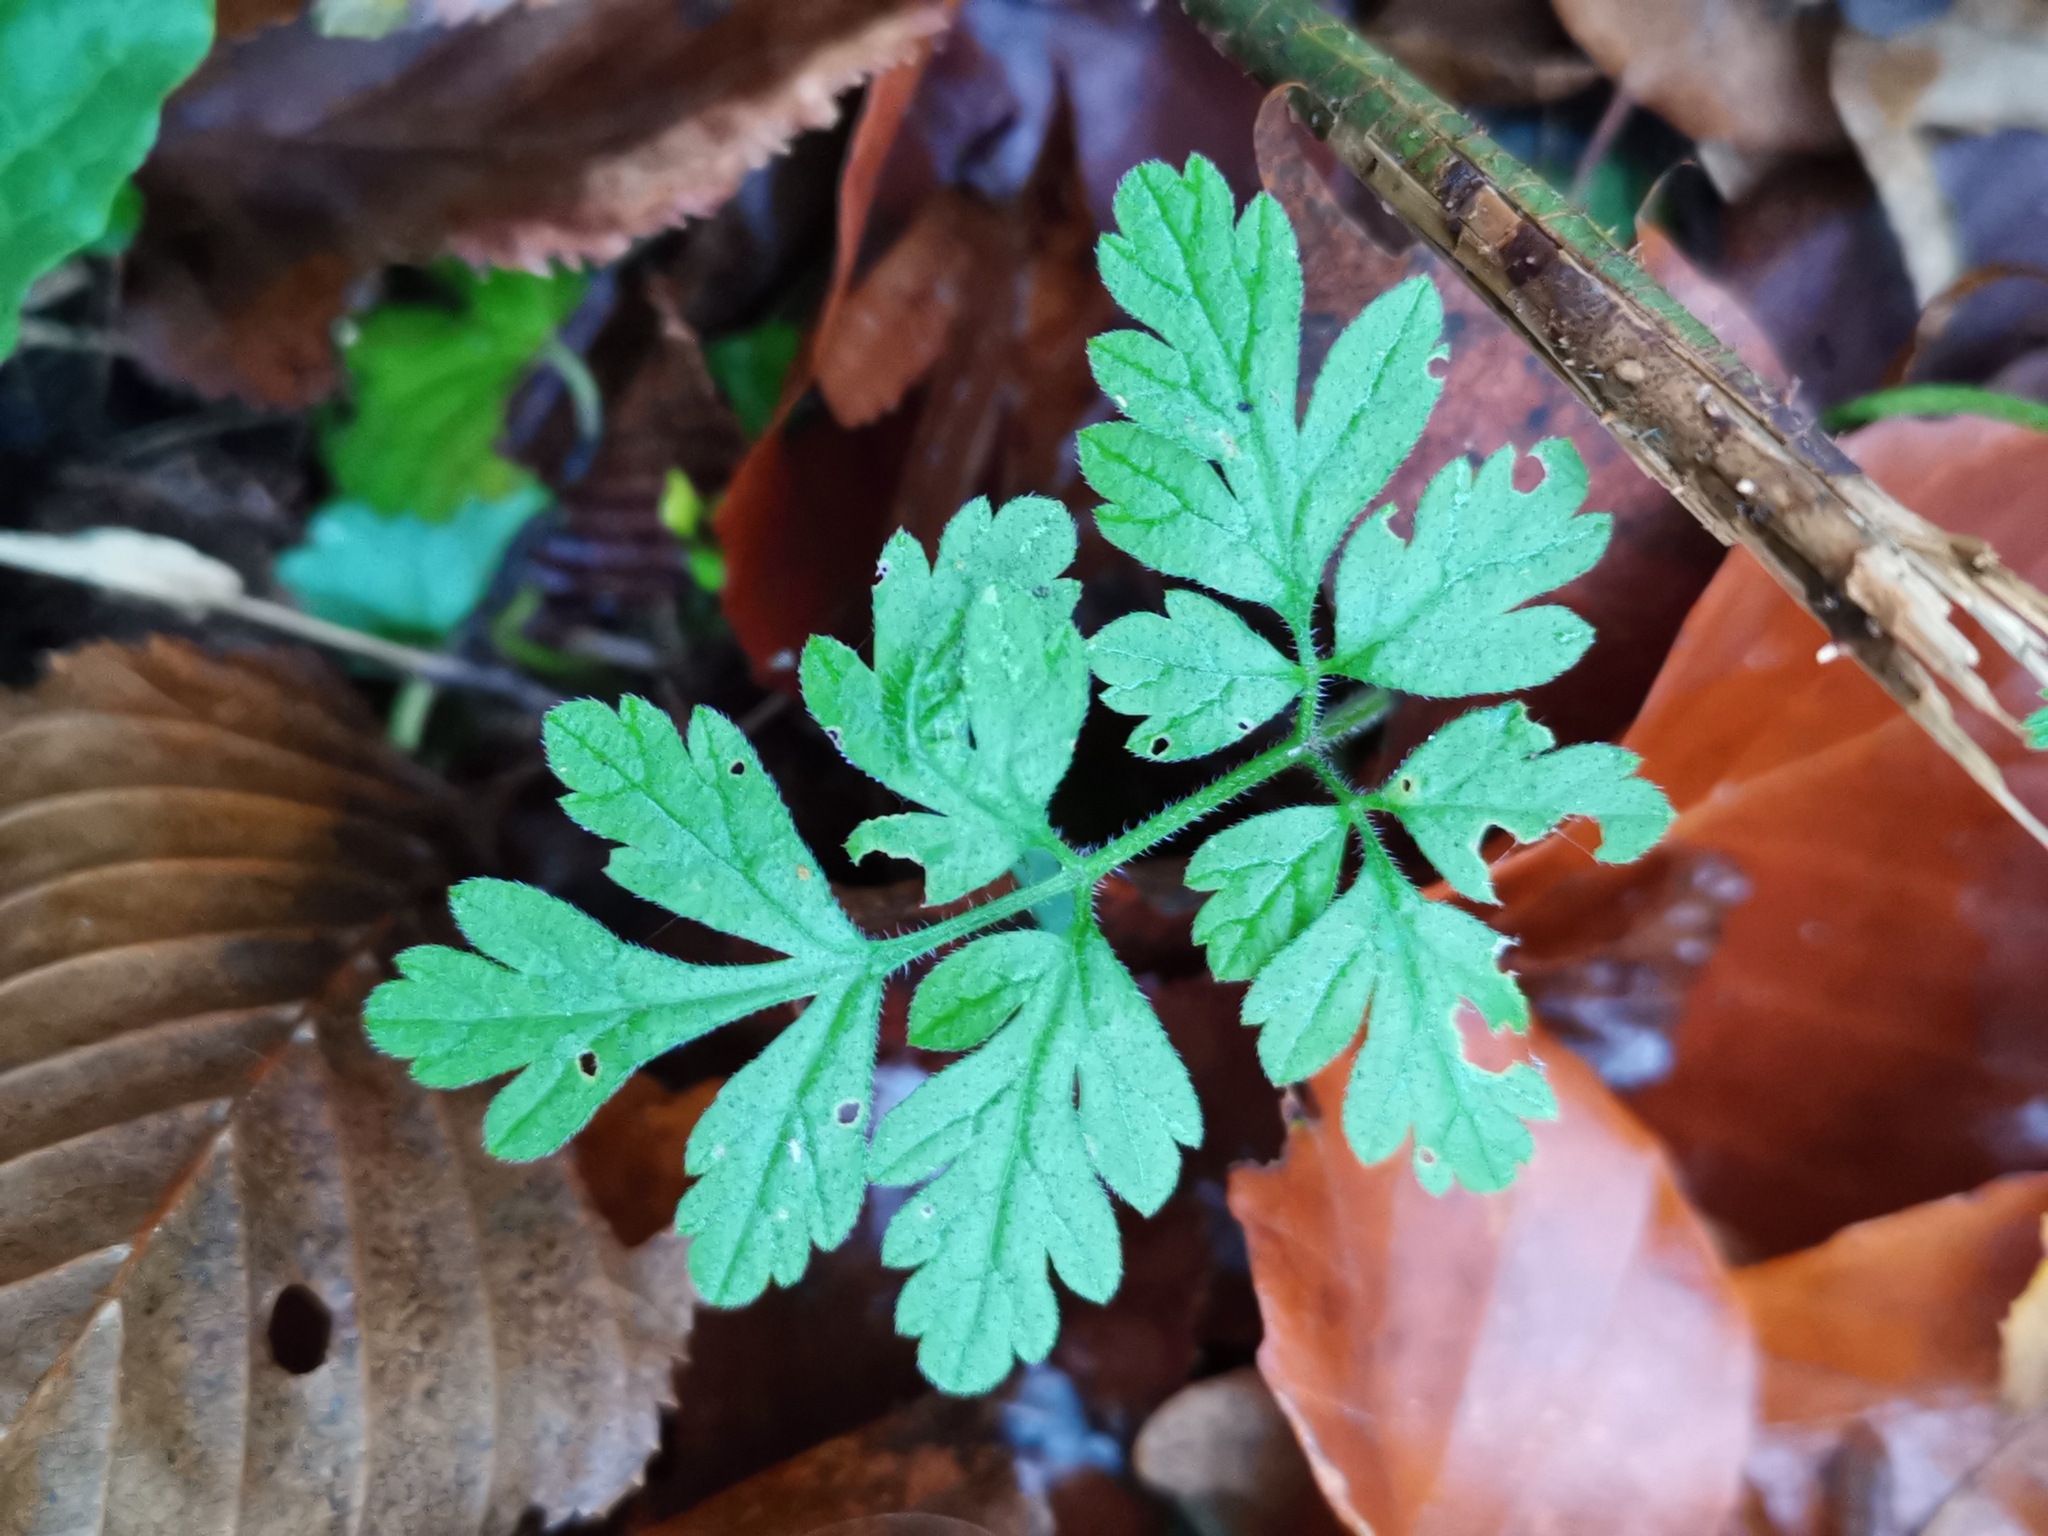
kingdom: Plantae
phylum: Tracheophyta
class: Magnoliopsida
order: Apiales
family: Apiaceae
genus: Chaerophyllum
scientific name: Chaerophyllum temulum
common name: Rough chervil
